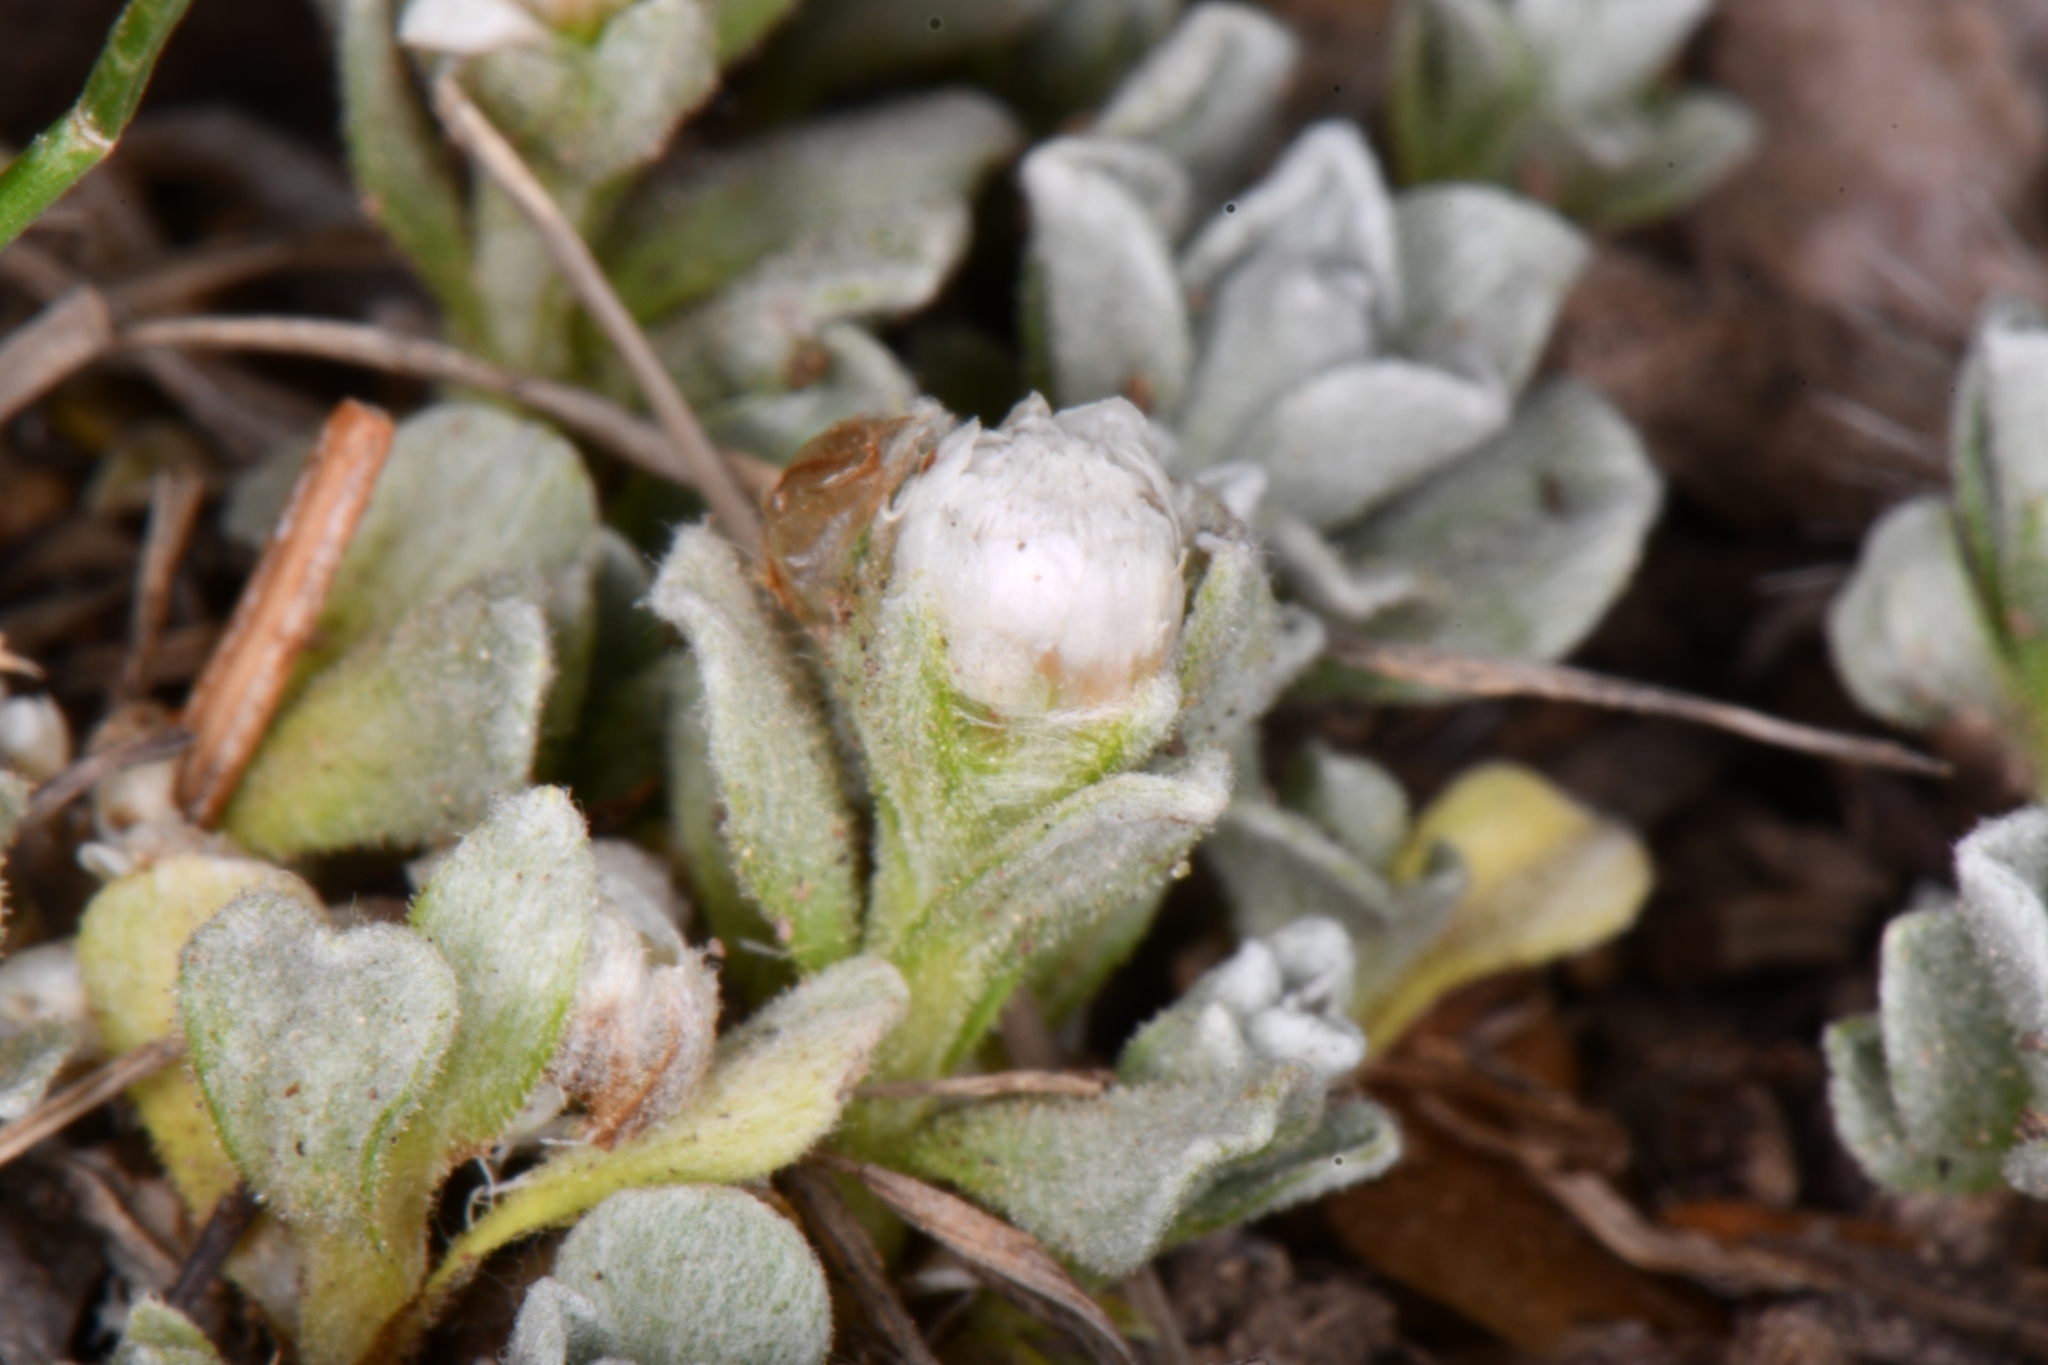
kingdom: Plantae
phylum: Tracheophyta
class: Magnoliopsida
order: Asterales
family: Asteraceae
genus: Antennaria
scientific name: Antennaria rosulata
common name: Woolly pussytoes
